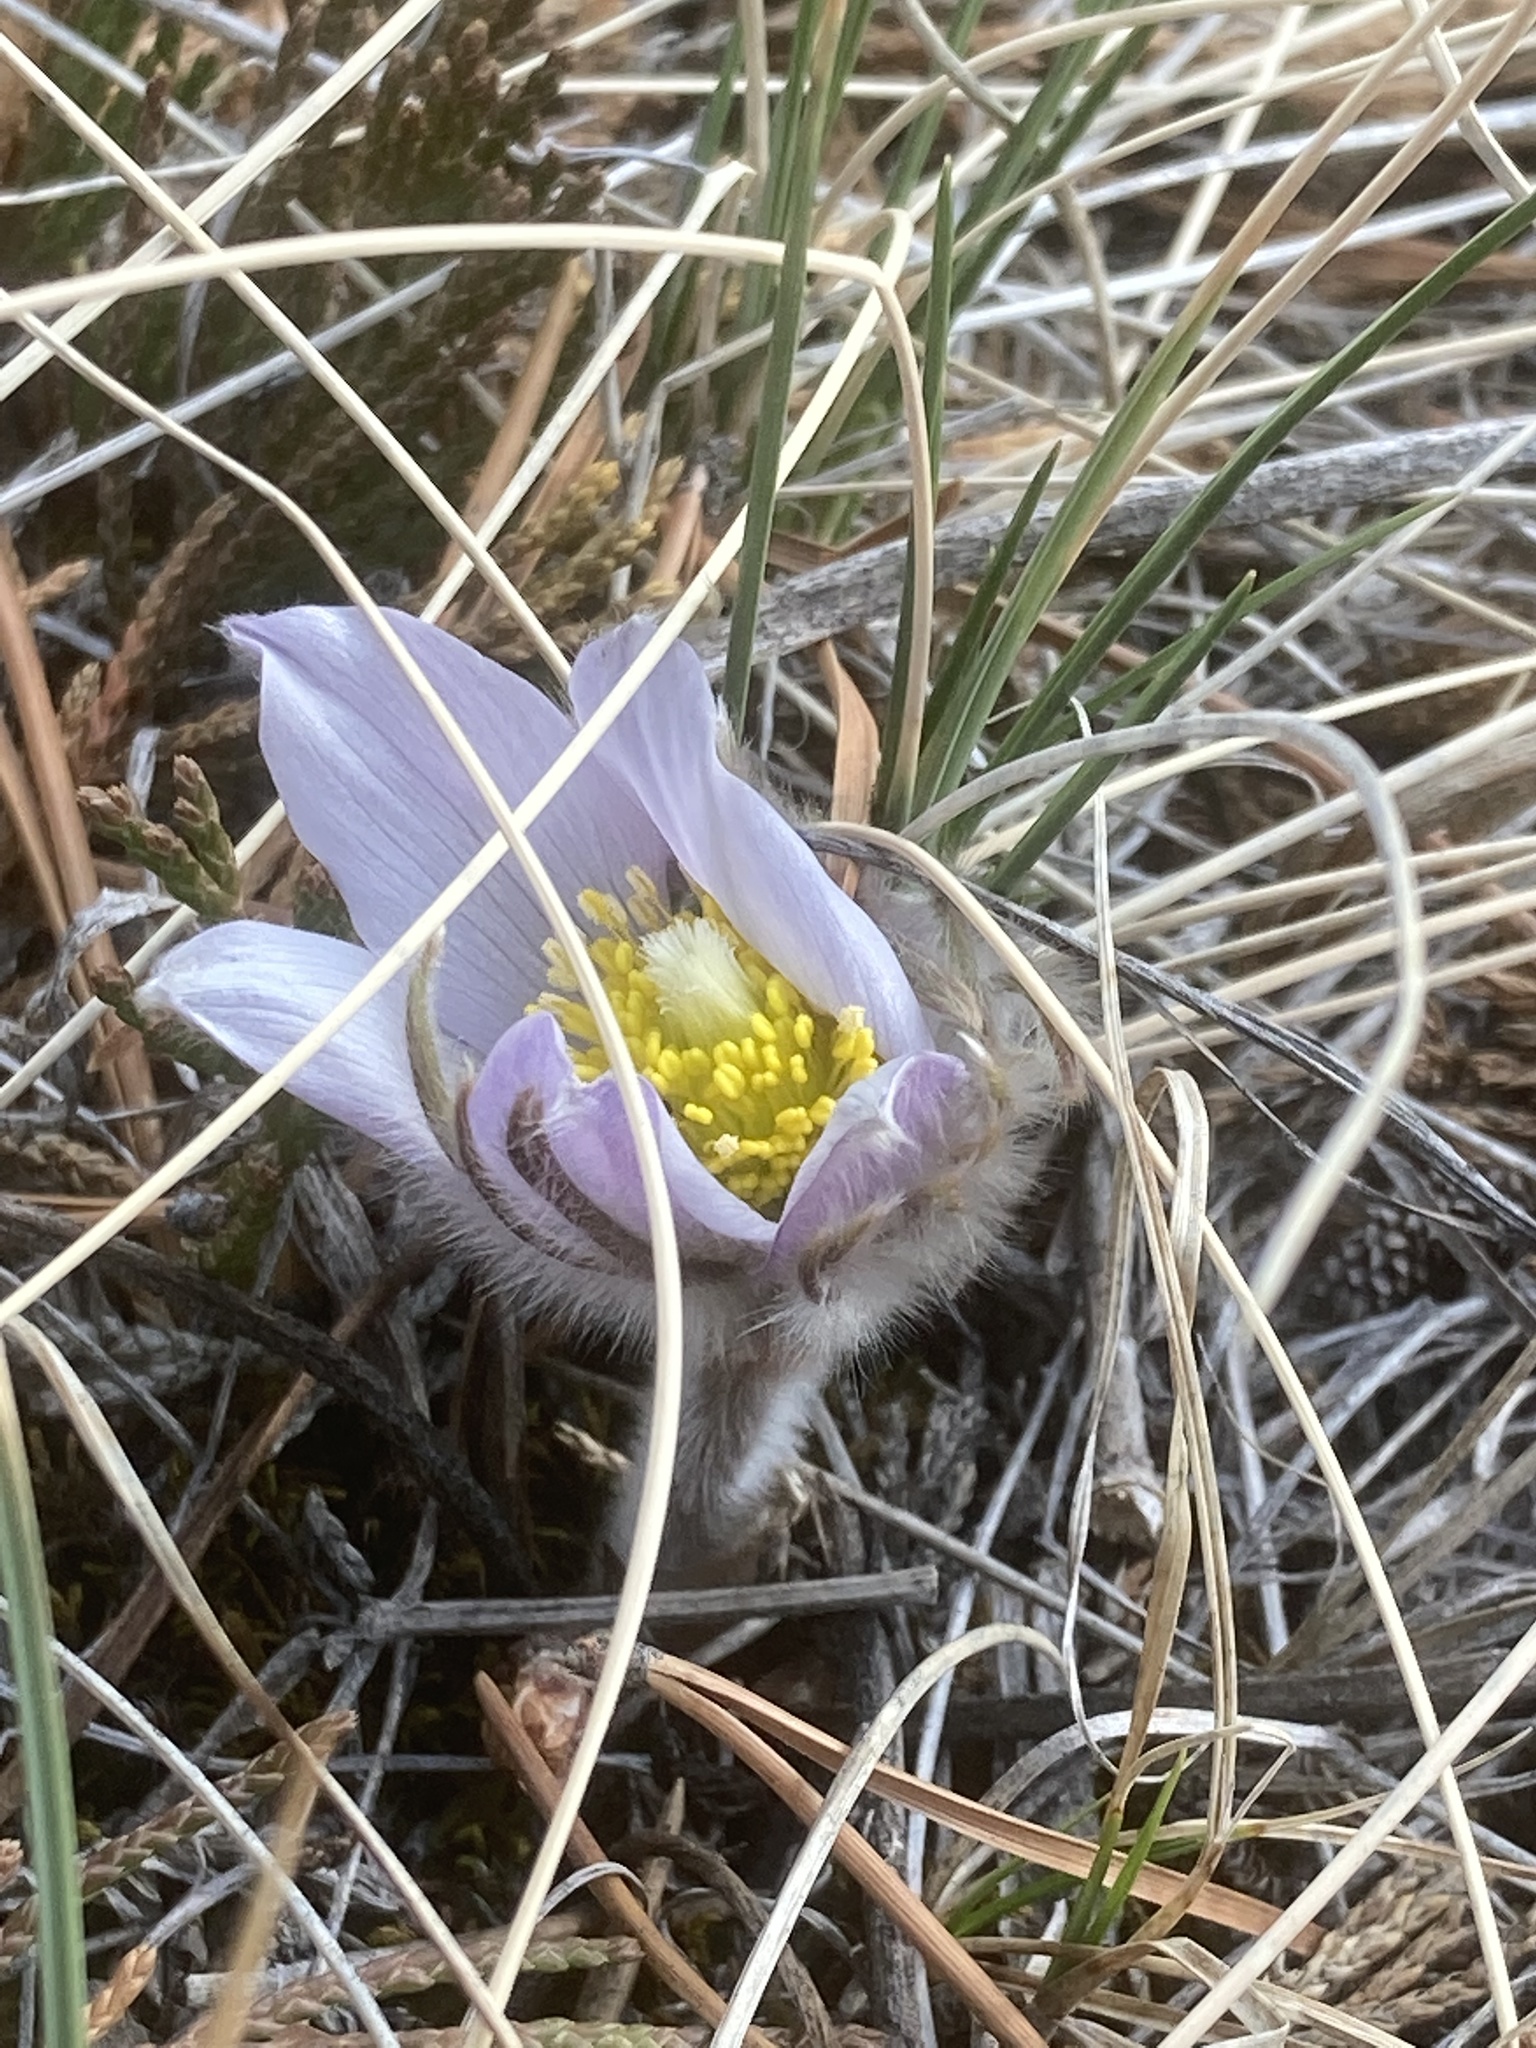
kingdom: Plantae
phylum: Tracheophyta
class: Magnoliopsida
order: Ranunculales
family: Ranunculaceae
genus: Pulsatilla
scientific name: Pulsatilla nuttalliana
